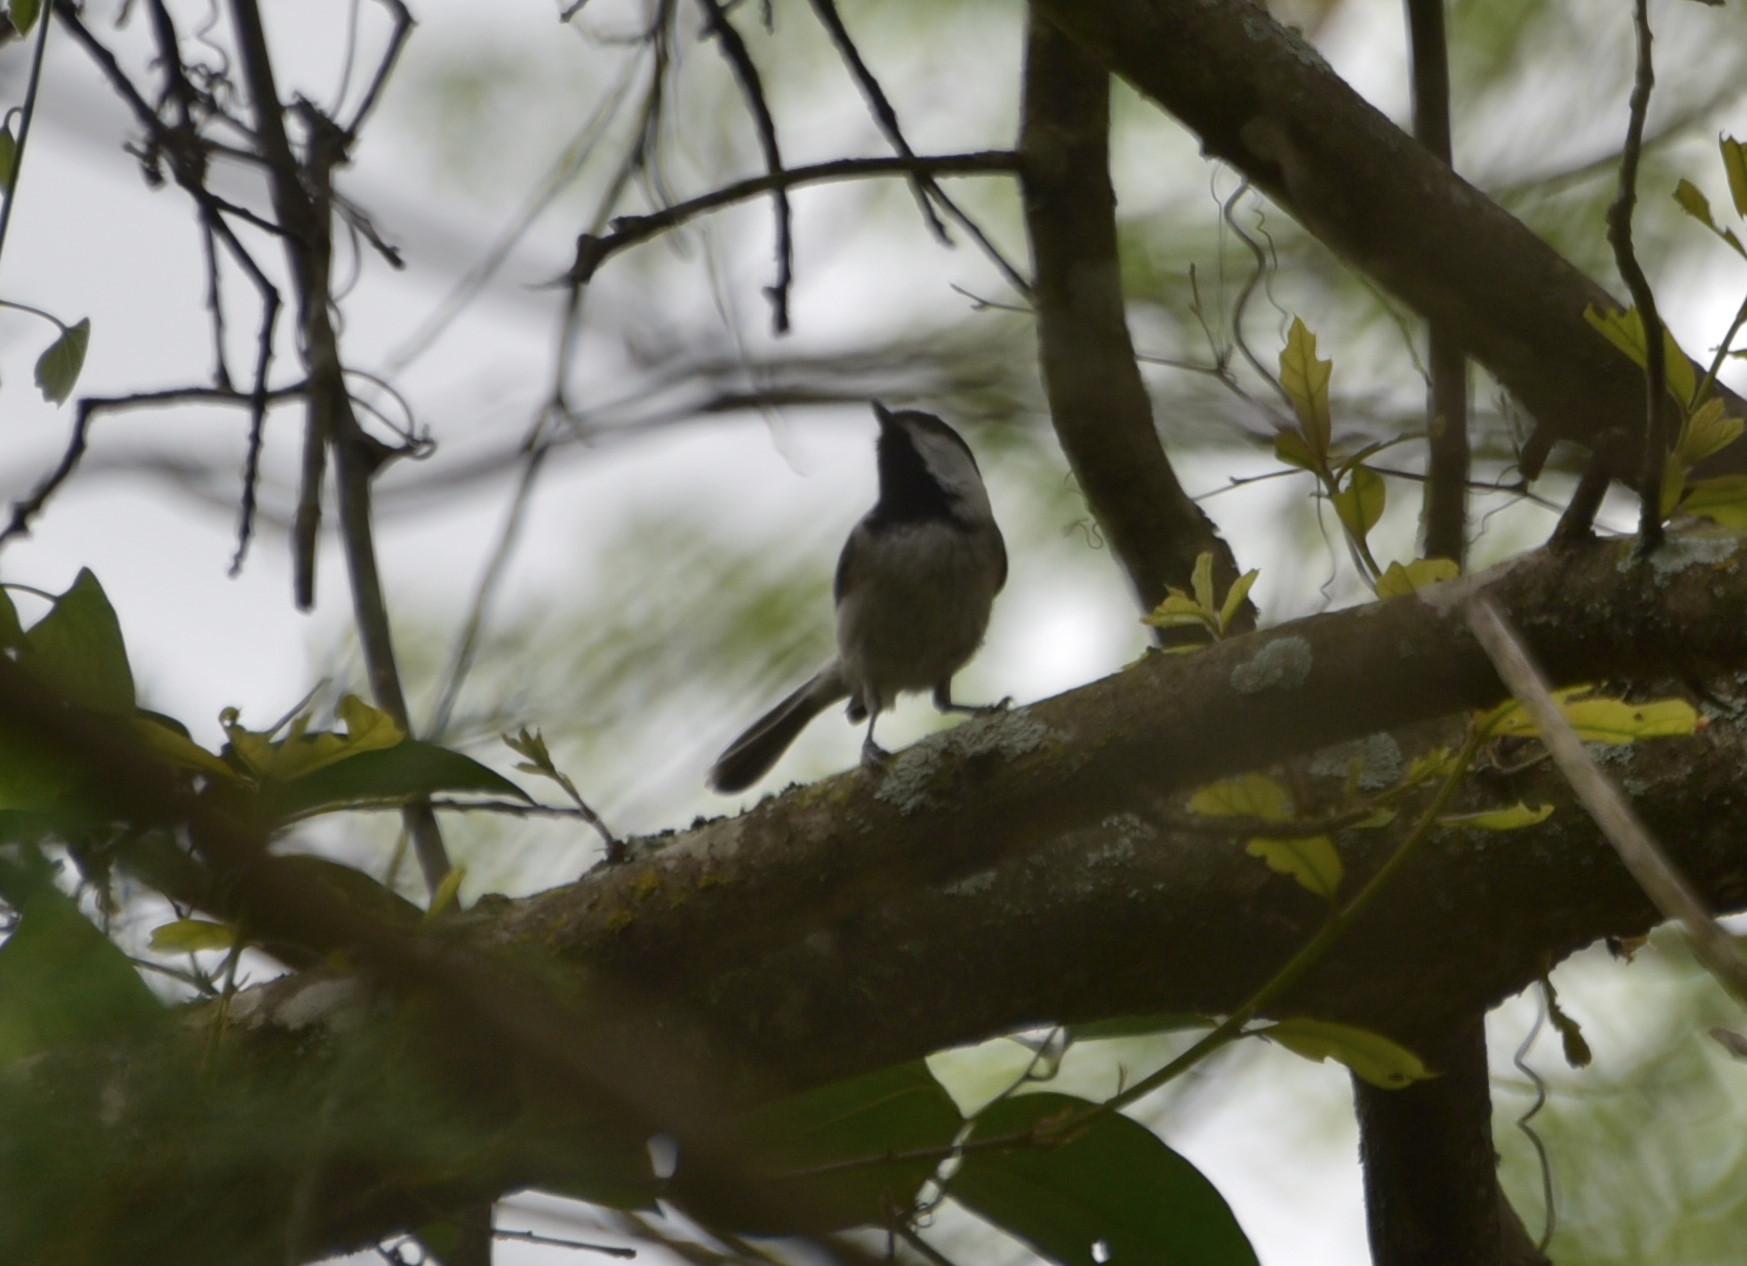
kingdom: Animalia
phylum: Chordata
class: Aves
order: Passeriformes
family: Paridae
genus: Poecile
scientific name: Poecile carolinensis
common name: Carolina chickadee
